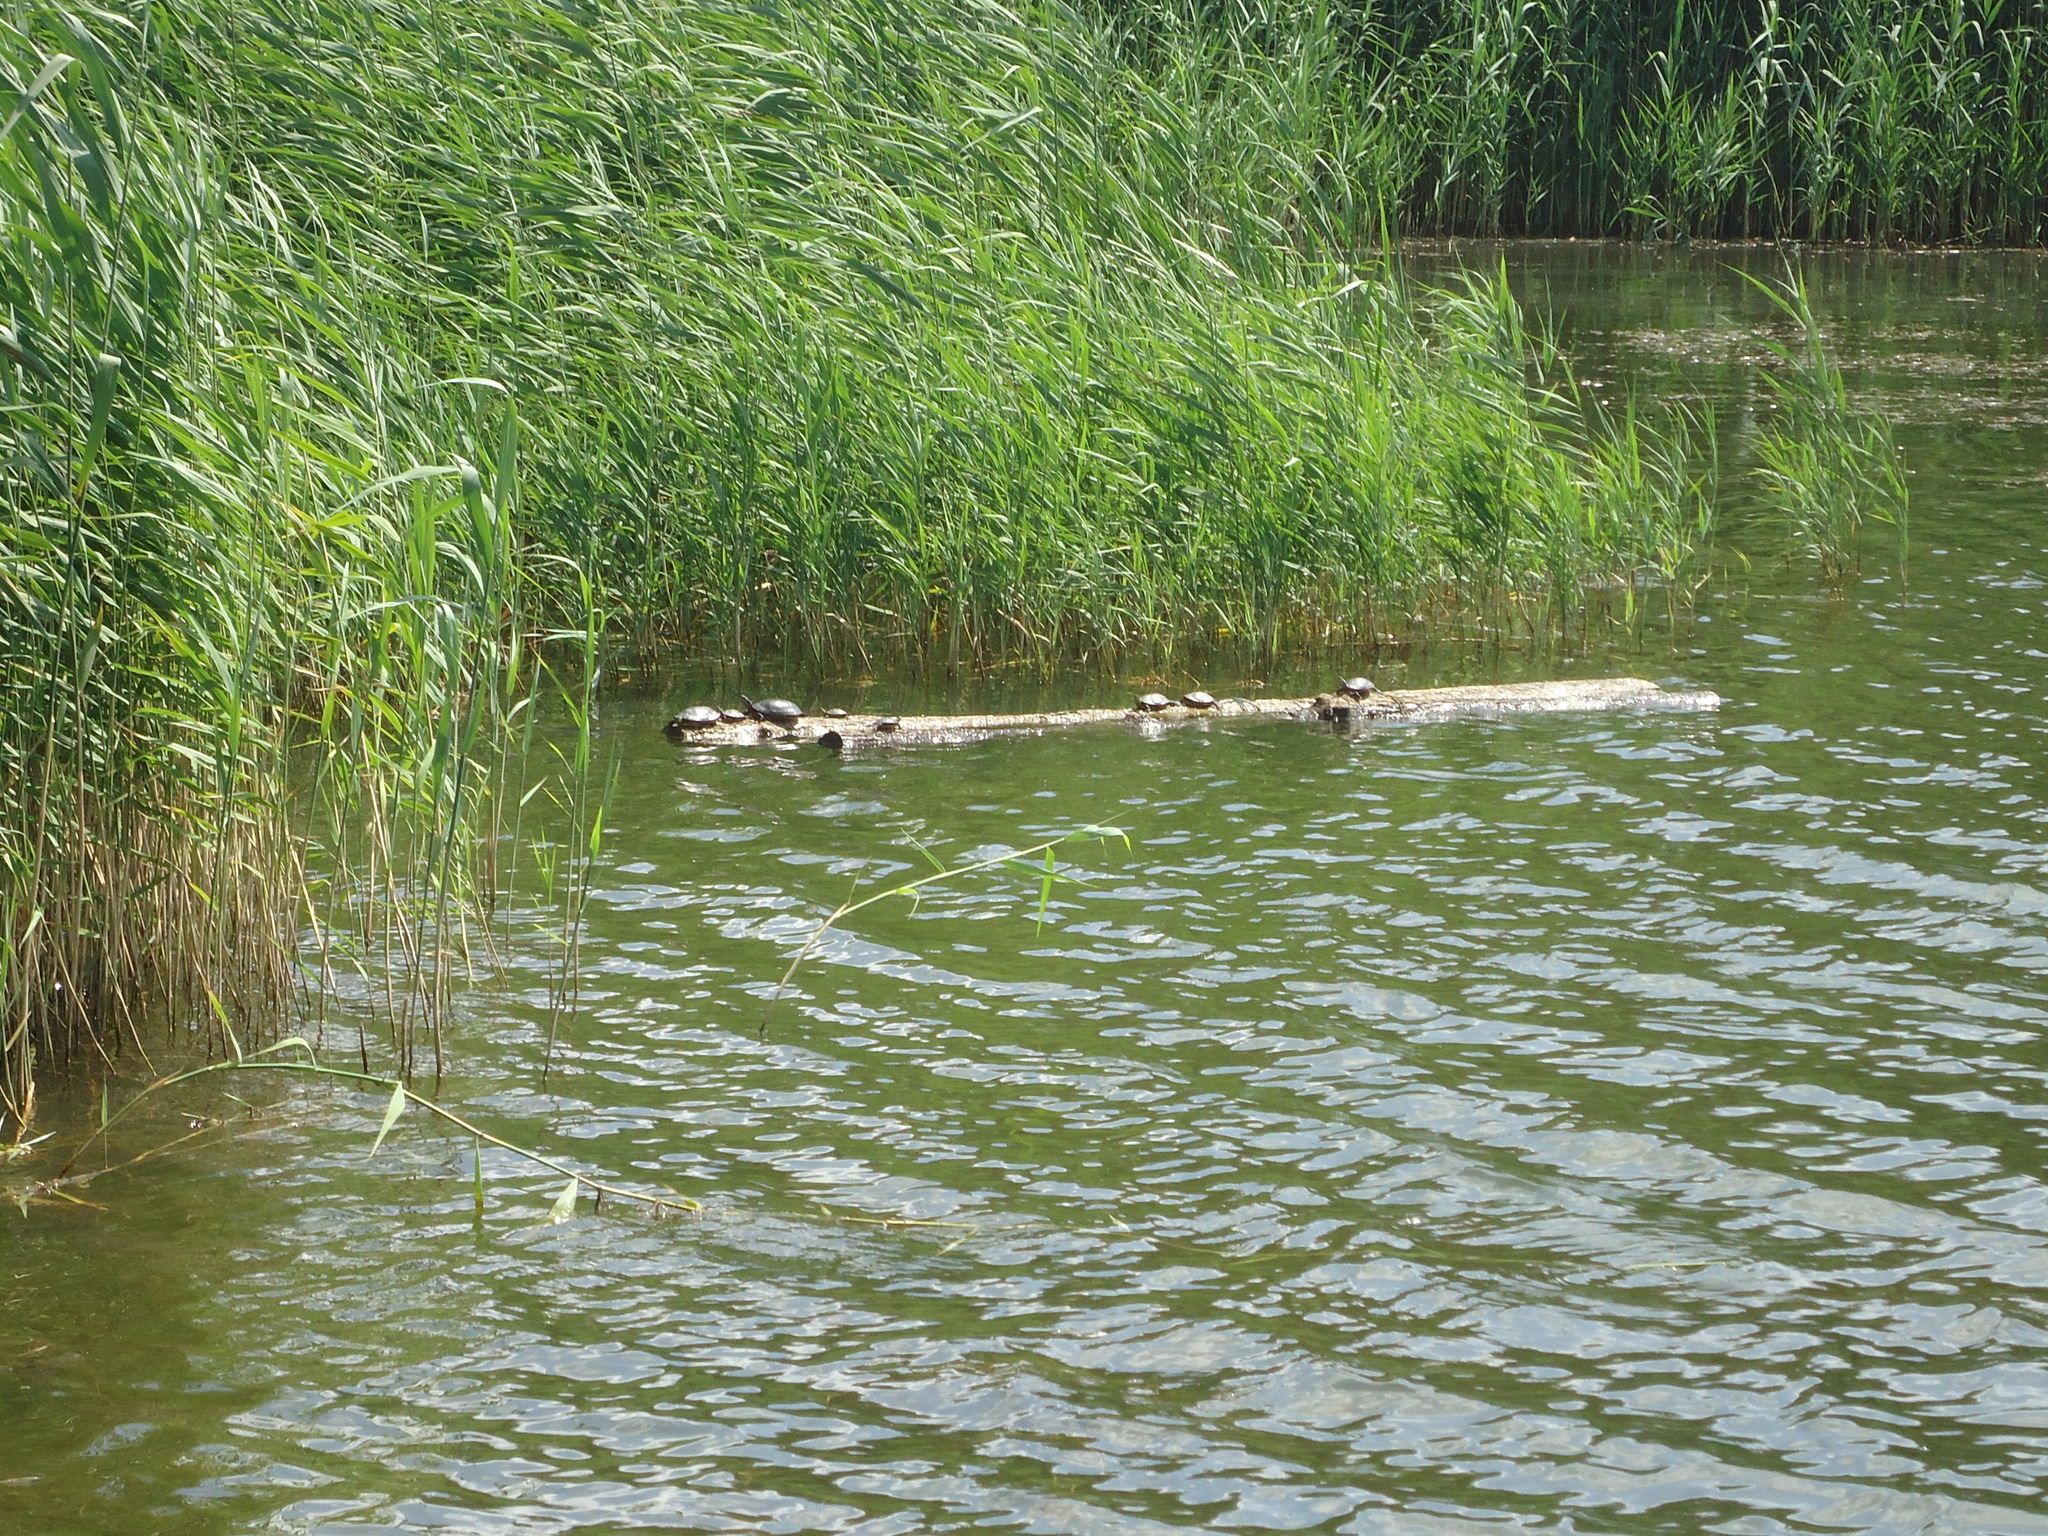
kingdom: Plantae
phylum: Tracheophyta
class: Liliopsida
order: Poales
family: Poaceae
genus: Phragmites
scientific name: Phragmites australis
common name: Common reed
